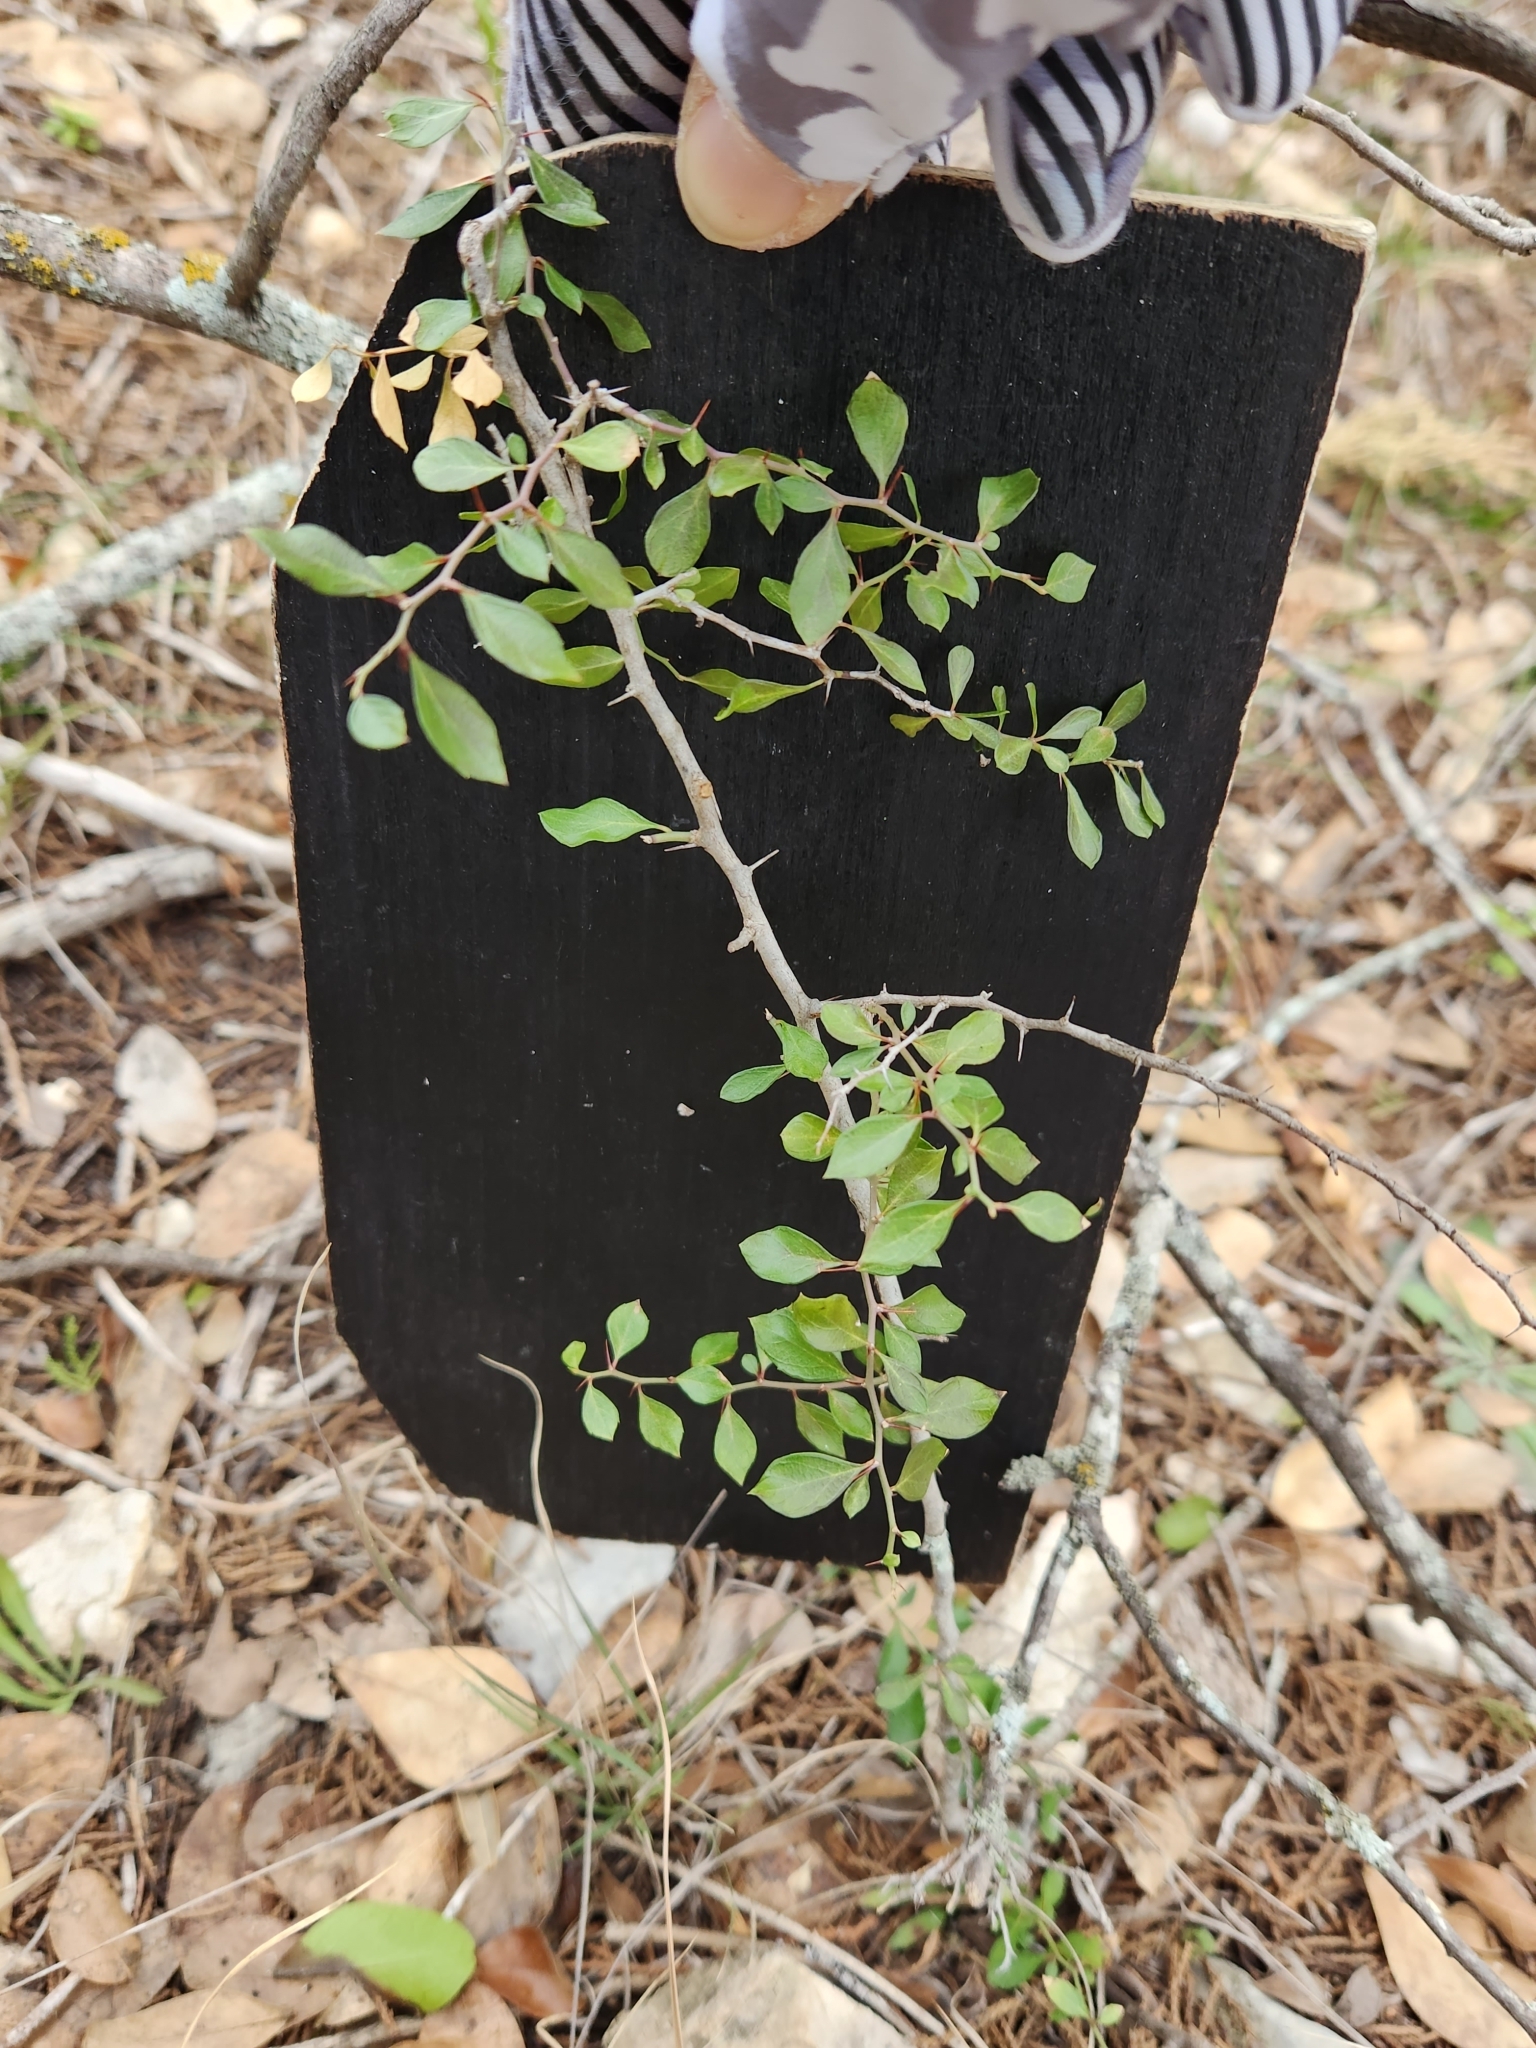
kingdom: Plantae
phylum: Tracheophyta
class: Magnoliopsida
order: Rosales
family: Rhamnaceae
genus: Condalia
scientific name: Condalia viridis
